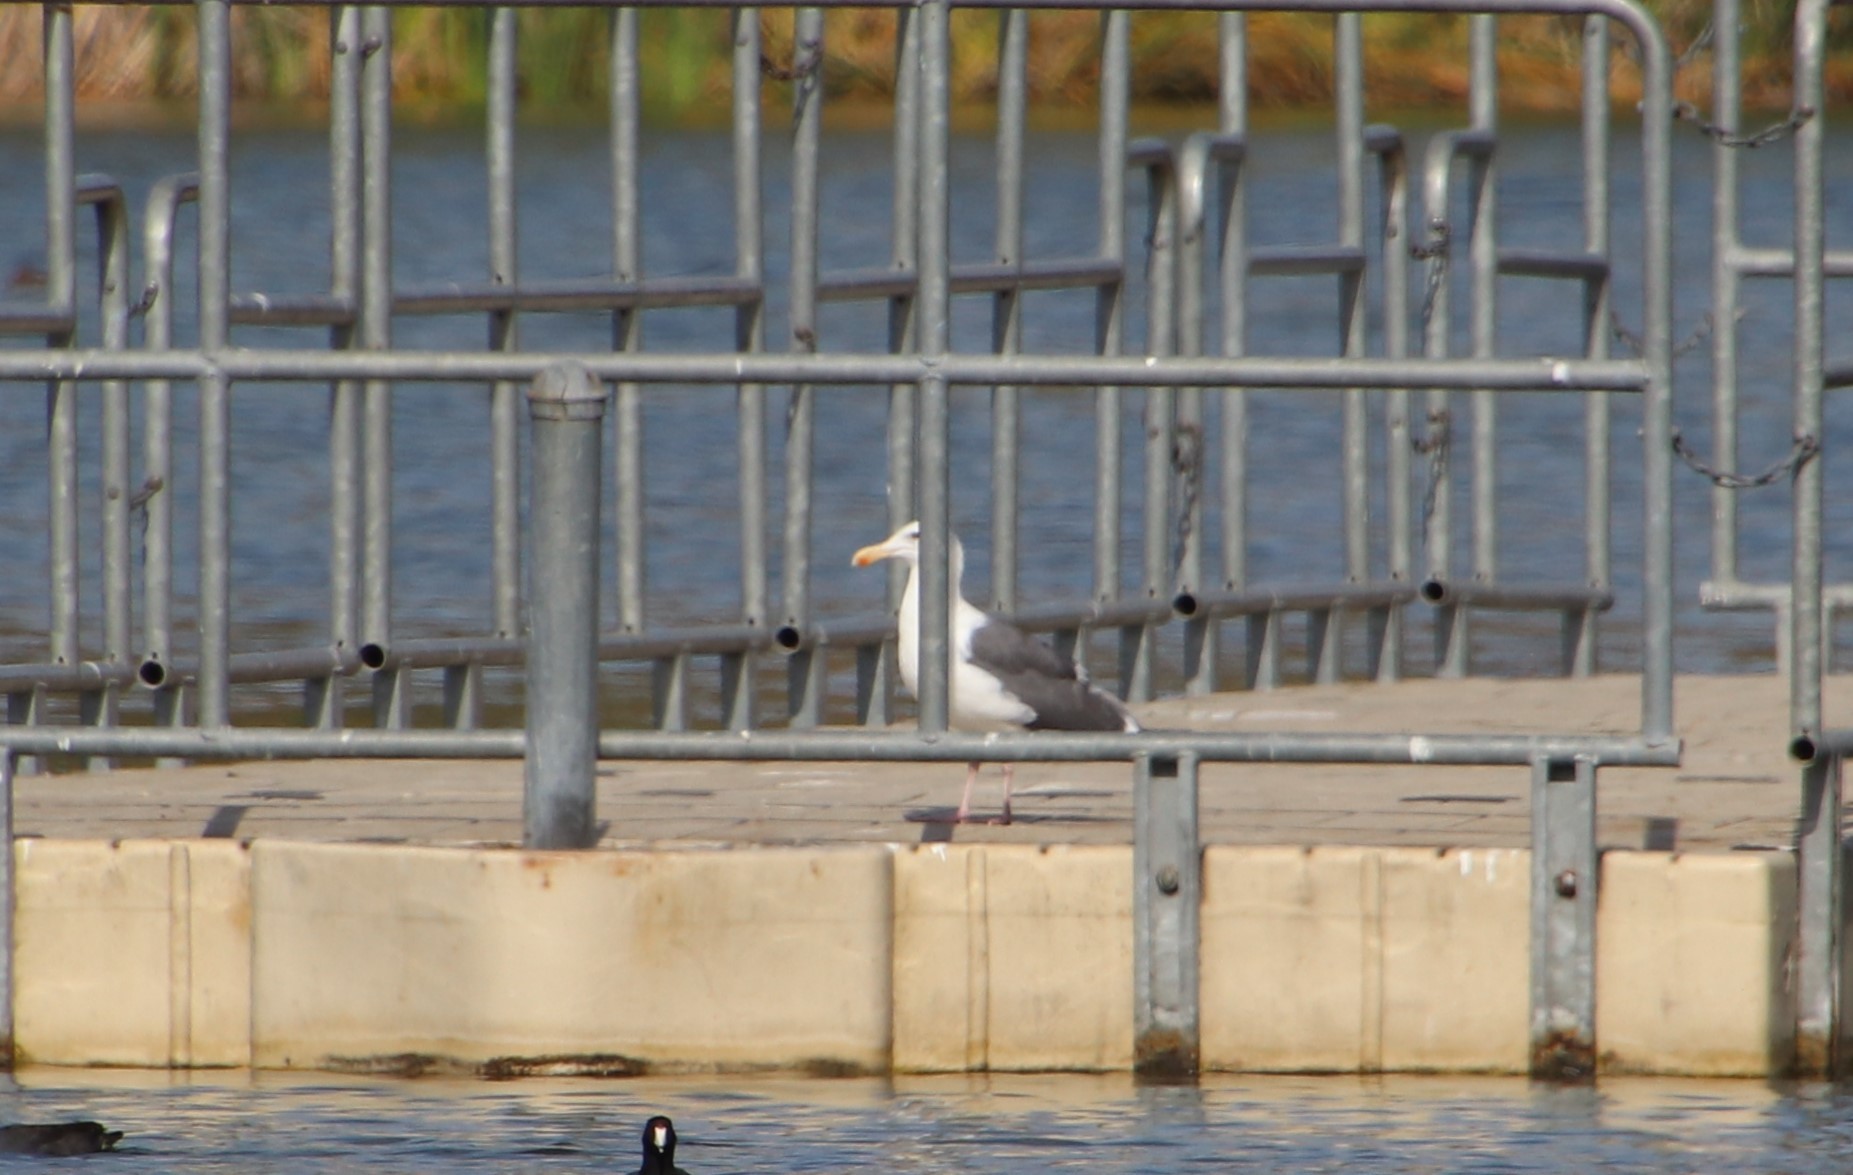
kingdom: Animalia
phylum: Chordata
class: Aves
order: Charadriiformes
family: Laridae
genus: Larus
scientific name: Larus occidentalis
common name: Western gull
